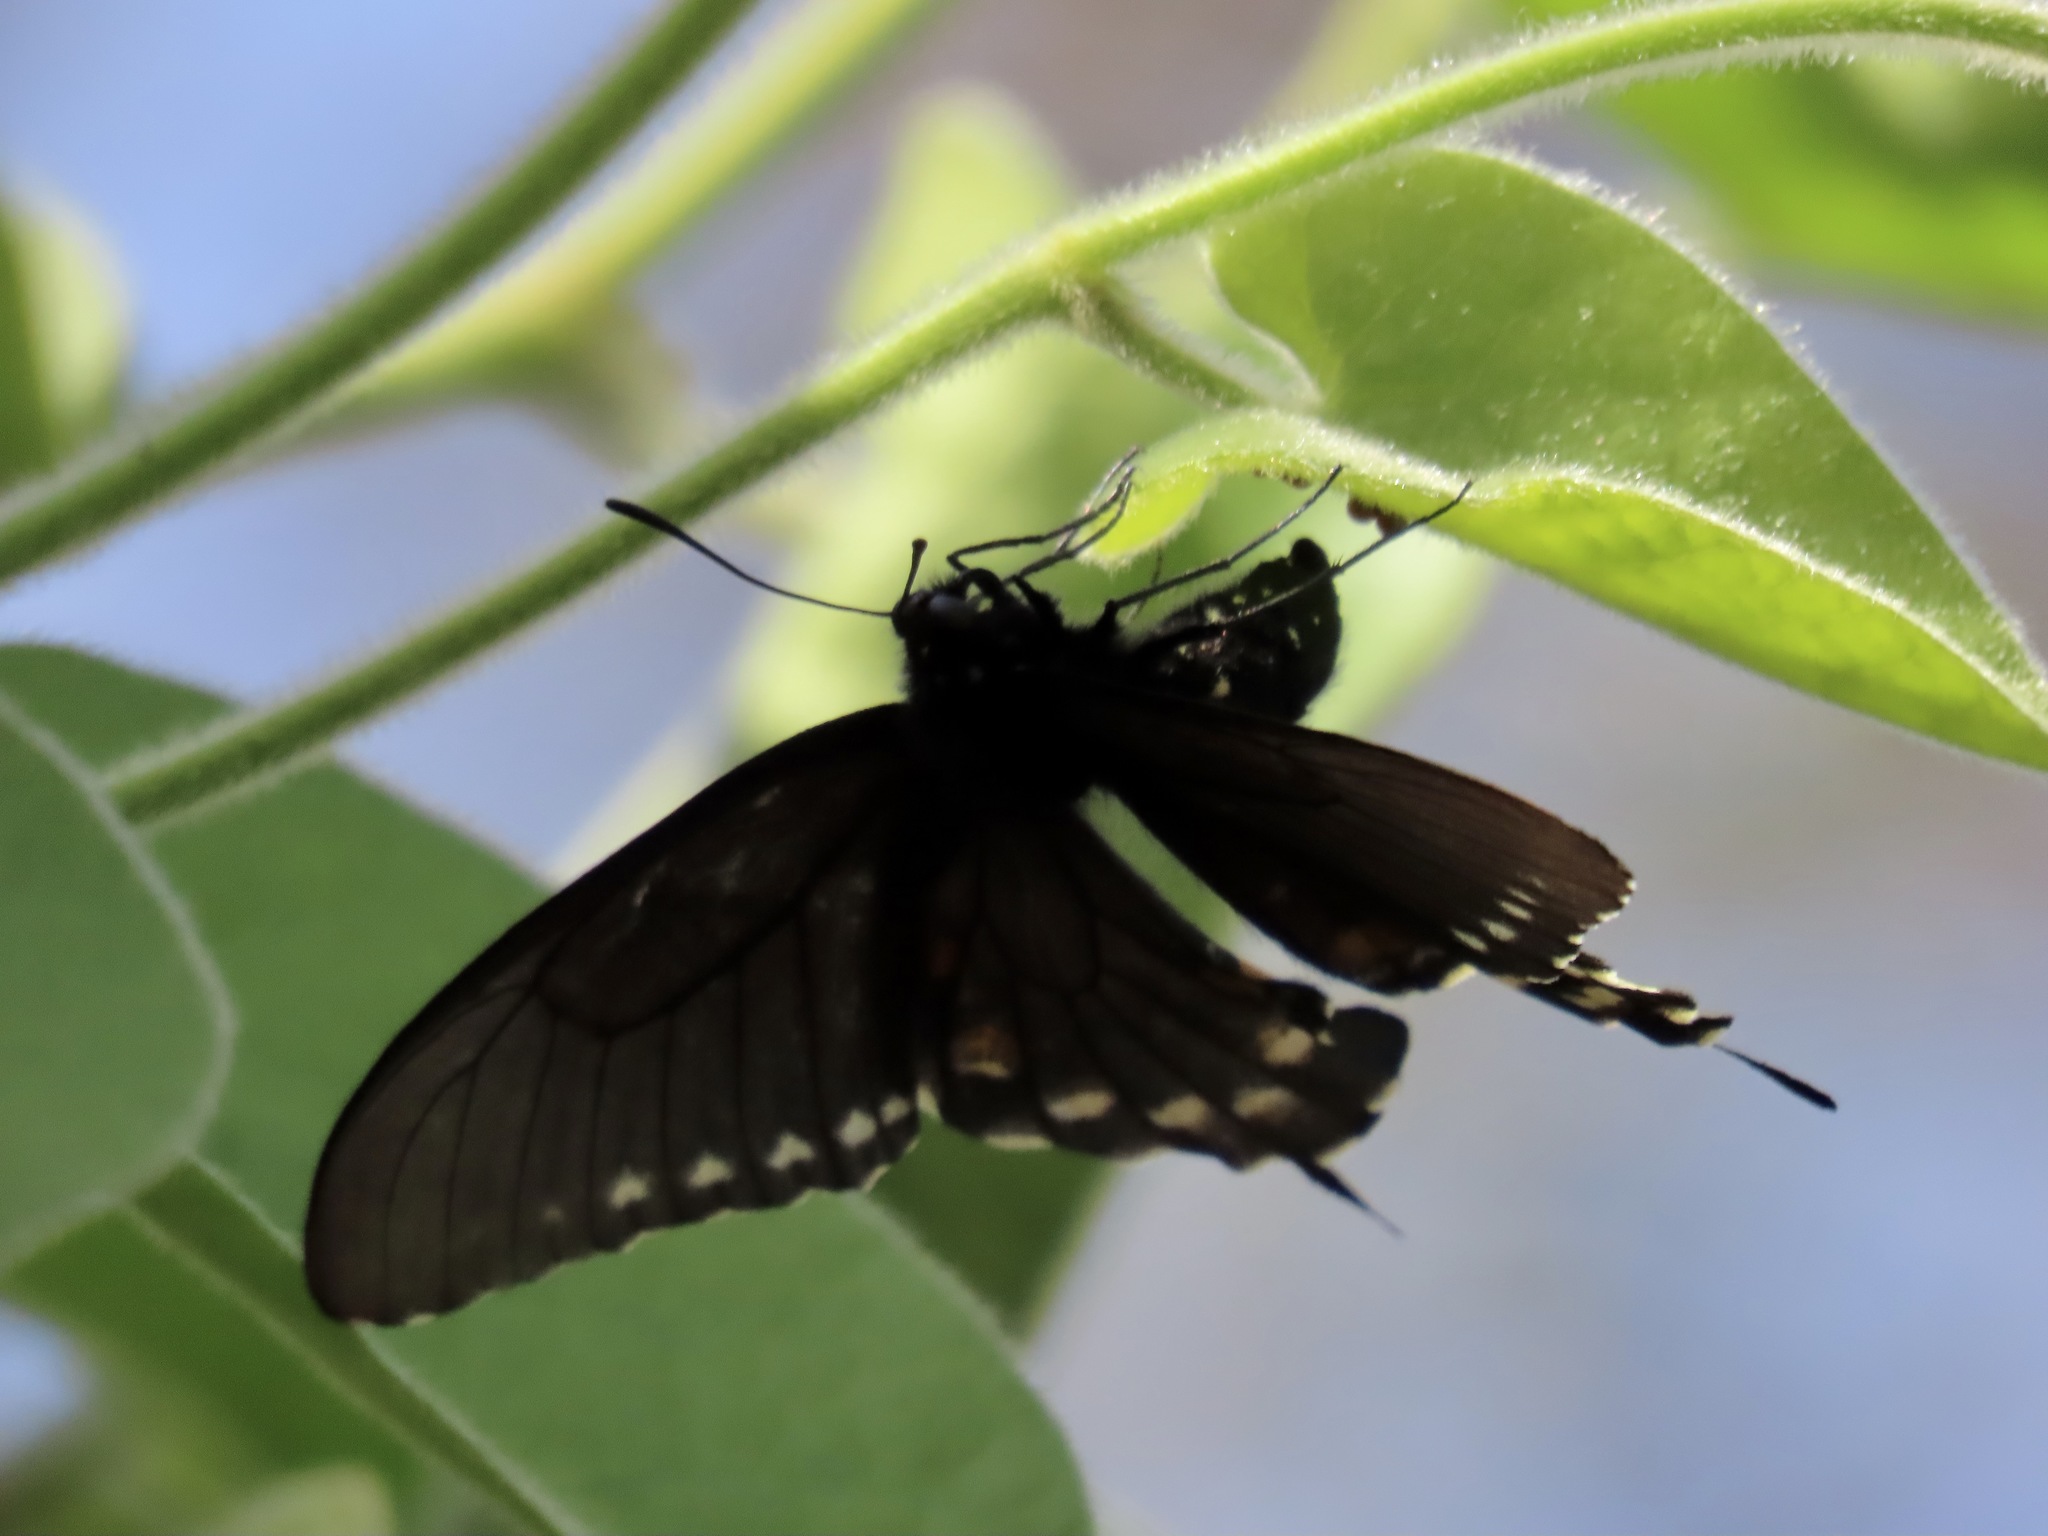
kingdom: Animalia
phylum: Arthropoda
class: Insecta
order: Lepidoptera
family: Papilionidae
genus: Battus
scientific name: Battus philenor
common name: Pipevine swallowtail
